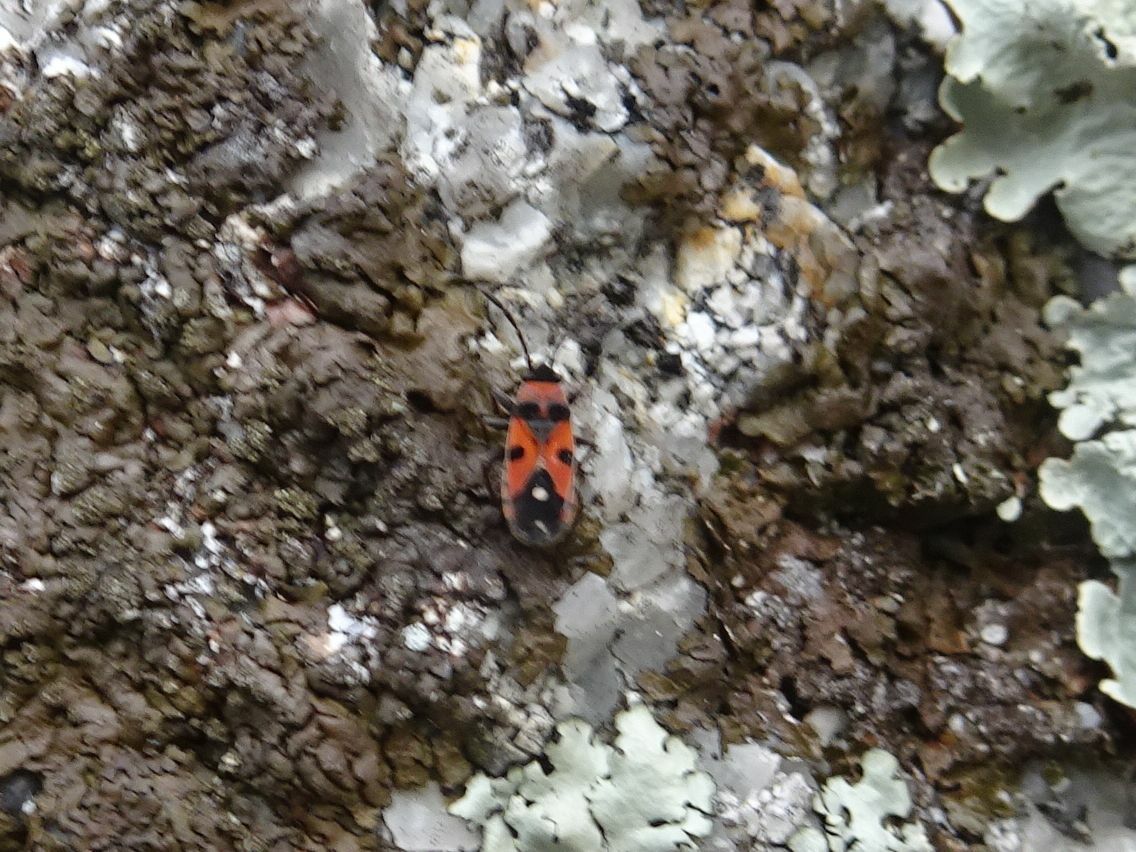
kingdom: Animalia
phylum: Arthropoda
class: Insecta
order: Hemiptera
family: Lygaeidae
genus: Horvathiolus
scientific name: Horvathiolus superbus
